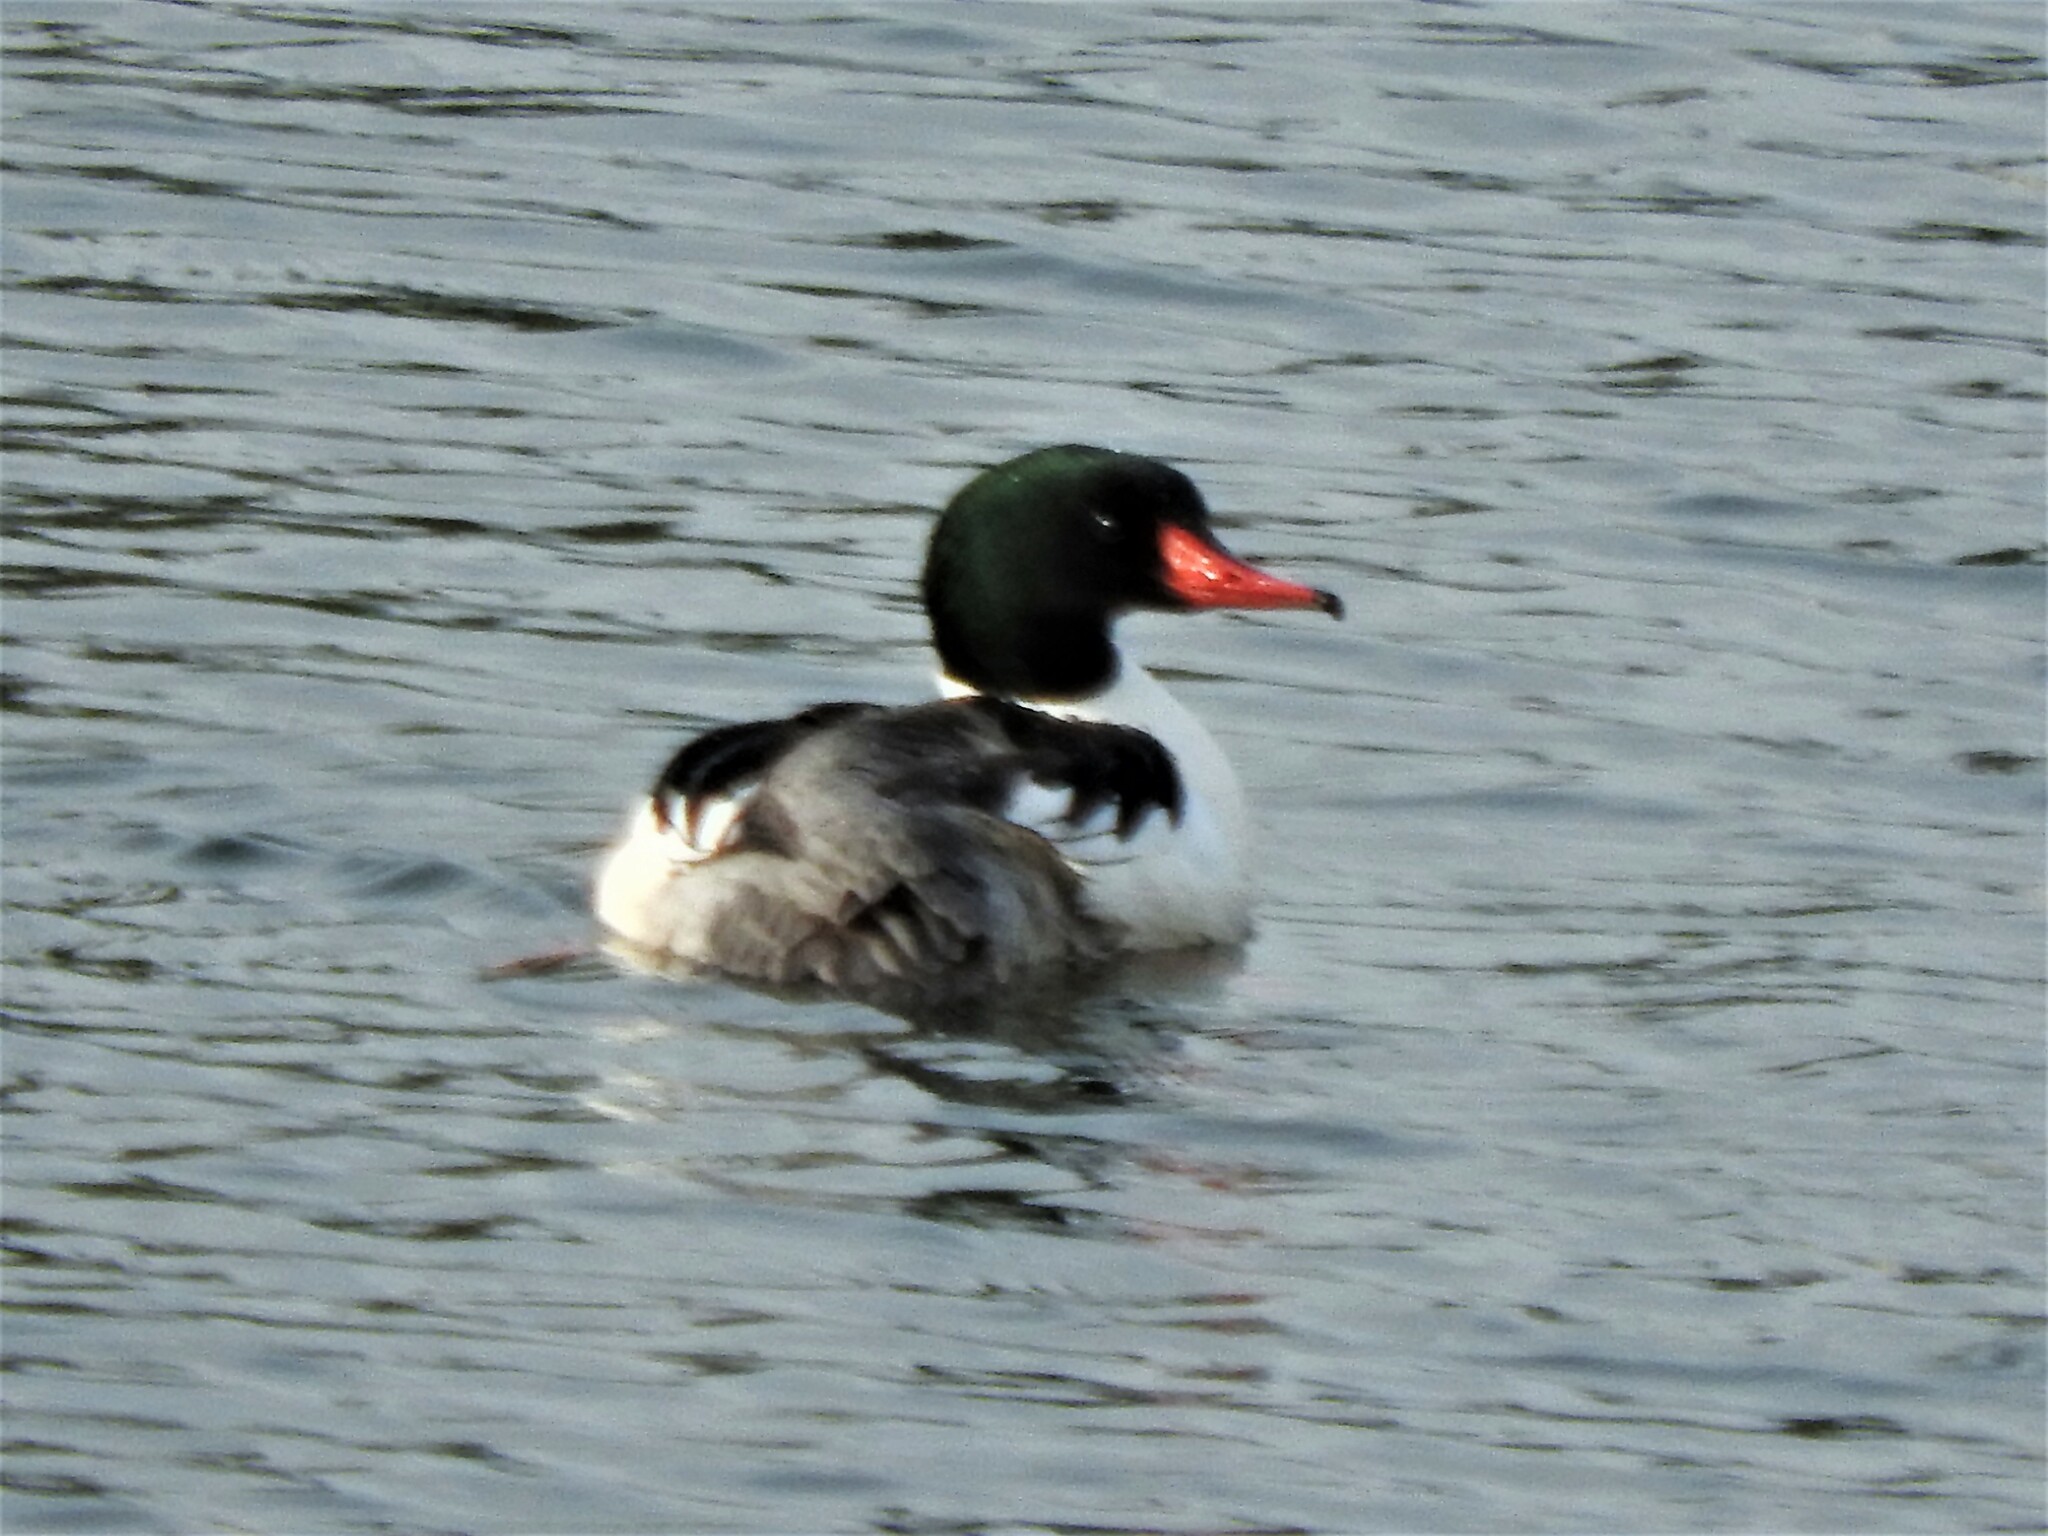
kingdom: Animalia
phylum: Chordata
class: Aves
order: Anseriformes
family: Anatidae
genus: Mergus
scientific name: Mergus merganser
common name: Common merganser
